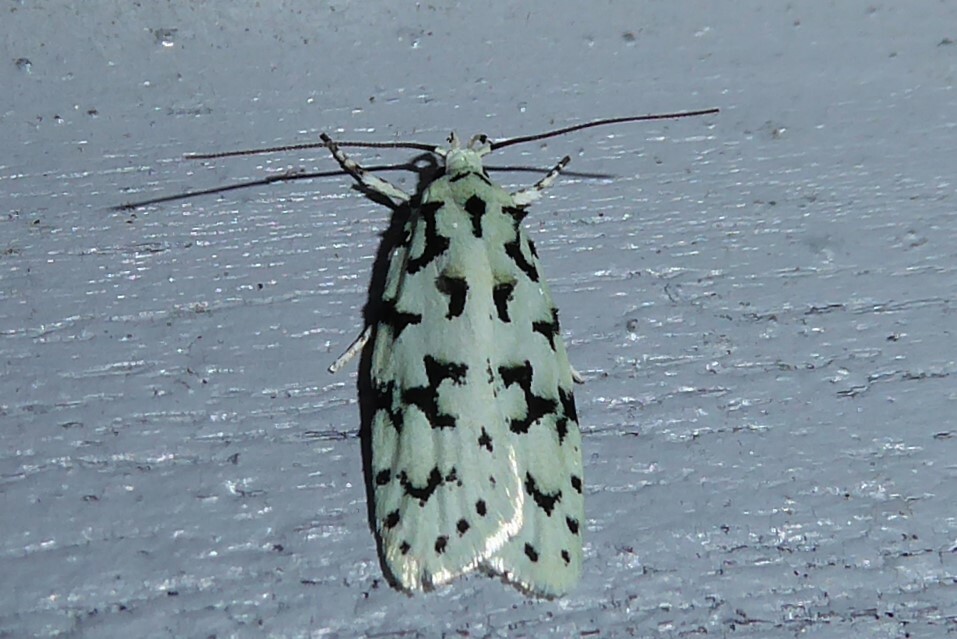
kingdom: Animalia
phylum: Arthropoda
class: Insecta
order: Lepidoptera
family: Oecophoridae
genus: Izatha
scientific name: Izatha huttoni
